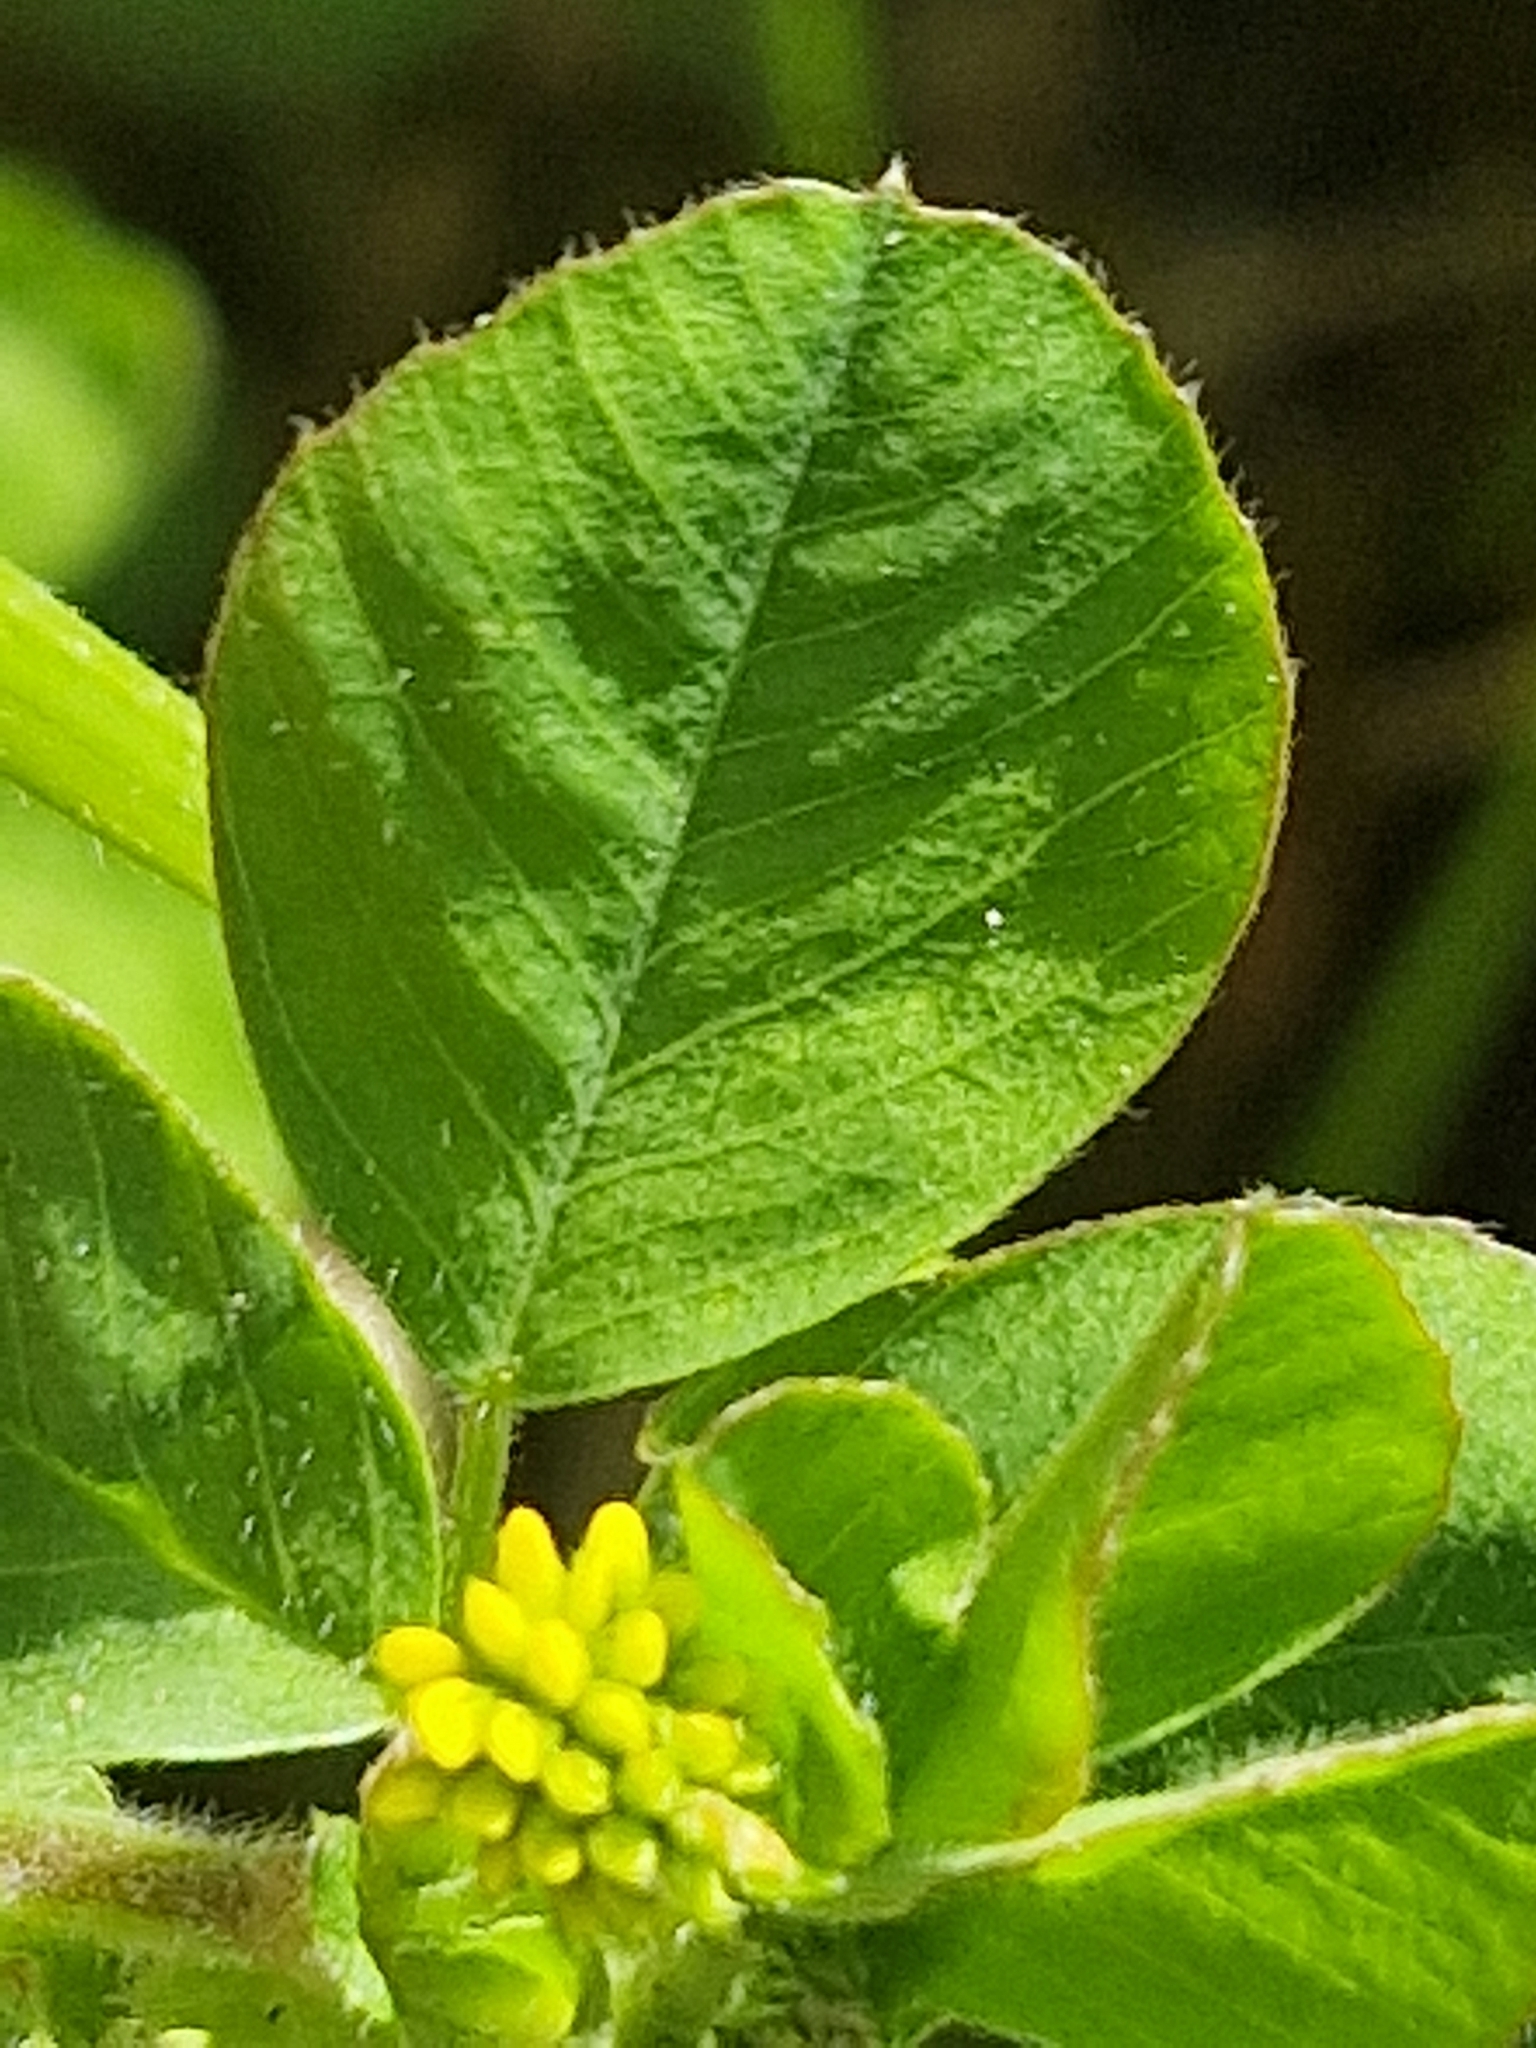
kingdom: Plantae
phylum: Tracheophyta
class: Magnoliopsida
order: Fabales
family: Fabaceae
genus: Medicago
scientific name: Medicago lupulina
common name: Black medick
